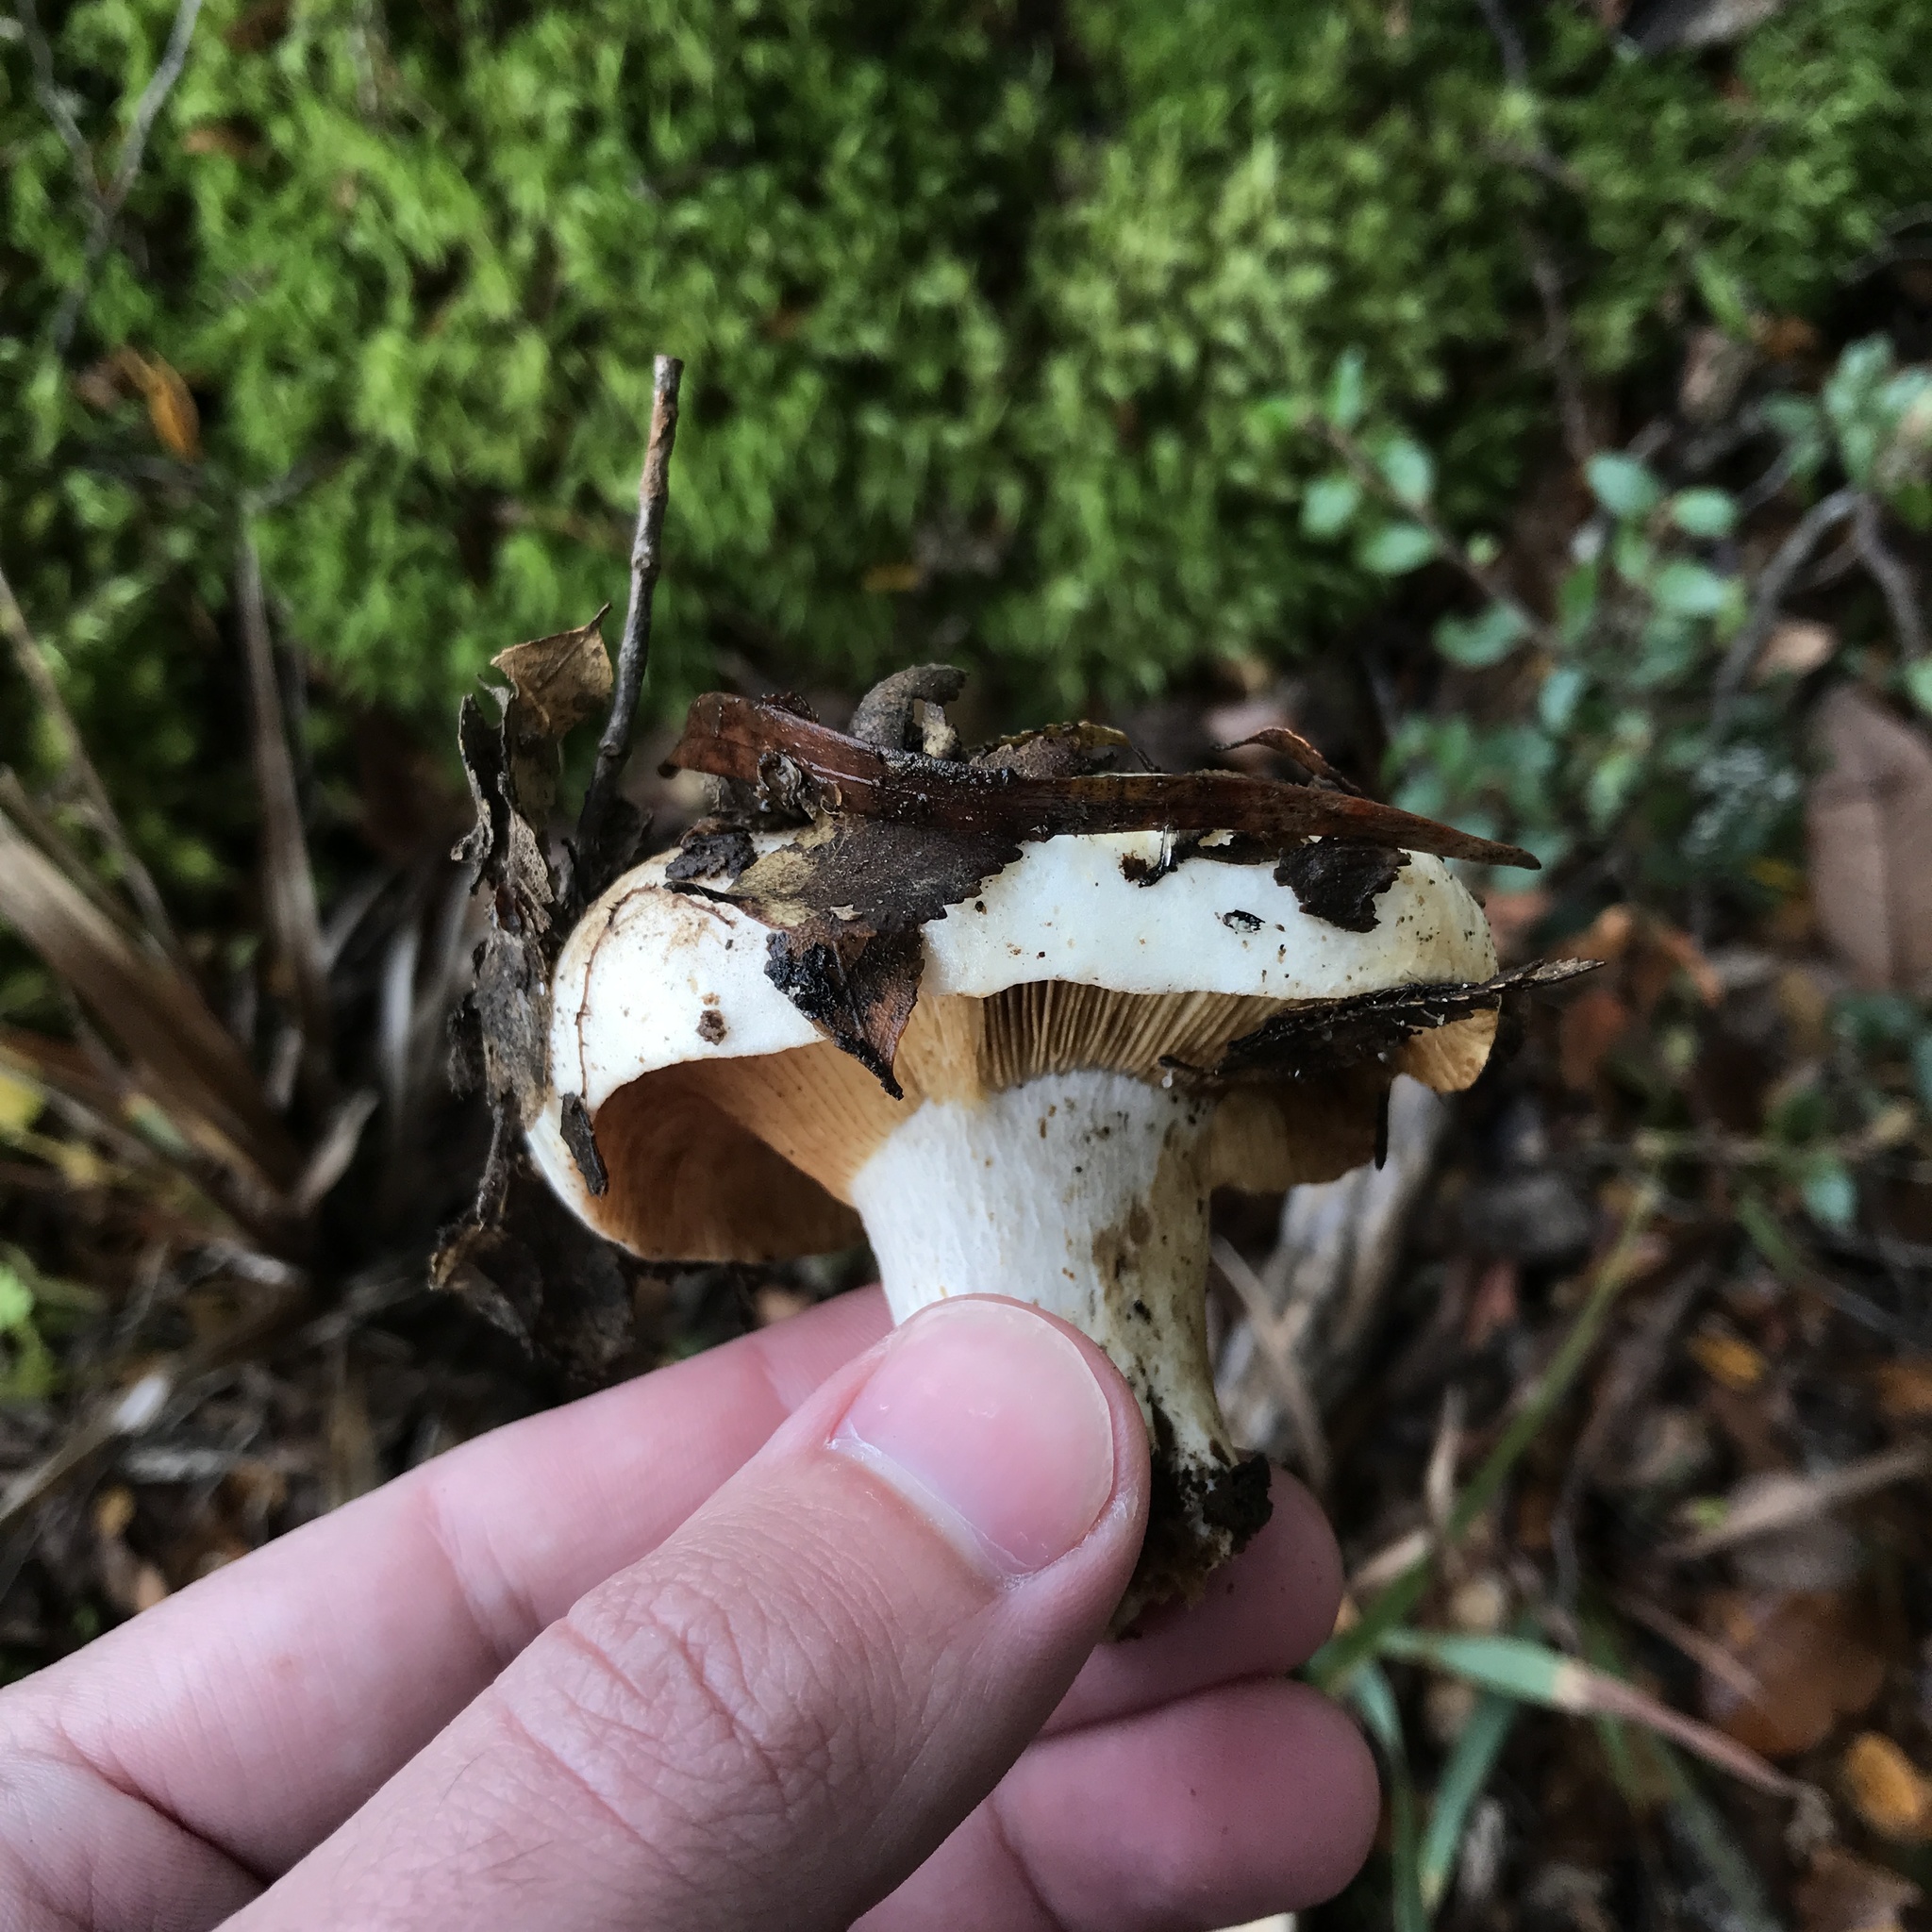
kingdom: Fungi
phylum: Basidiomycota
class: Agaricomycetes
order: Russulales
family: Russulaceae
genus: Russula
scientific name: Russula fuegiana
